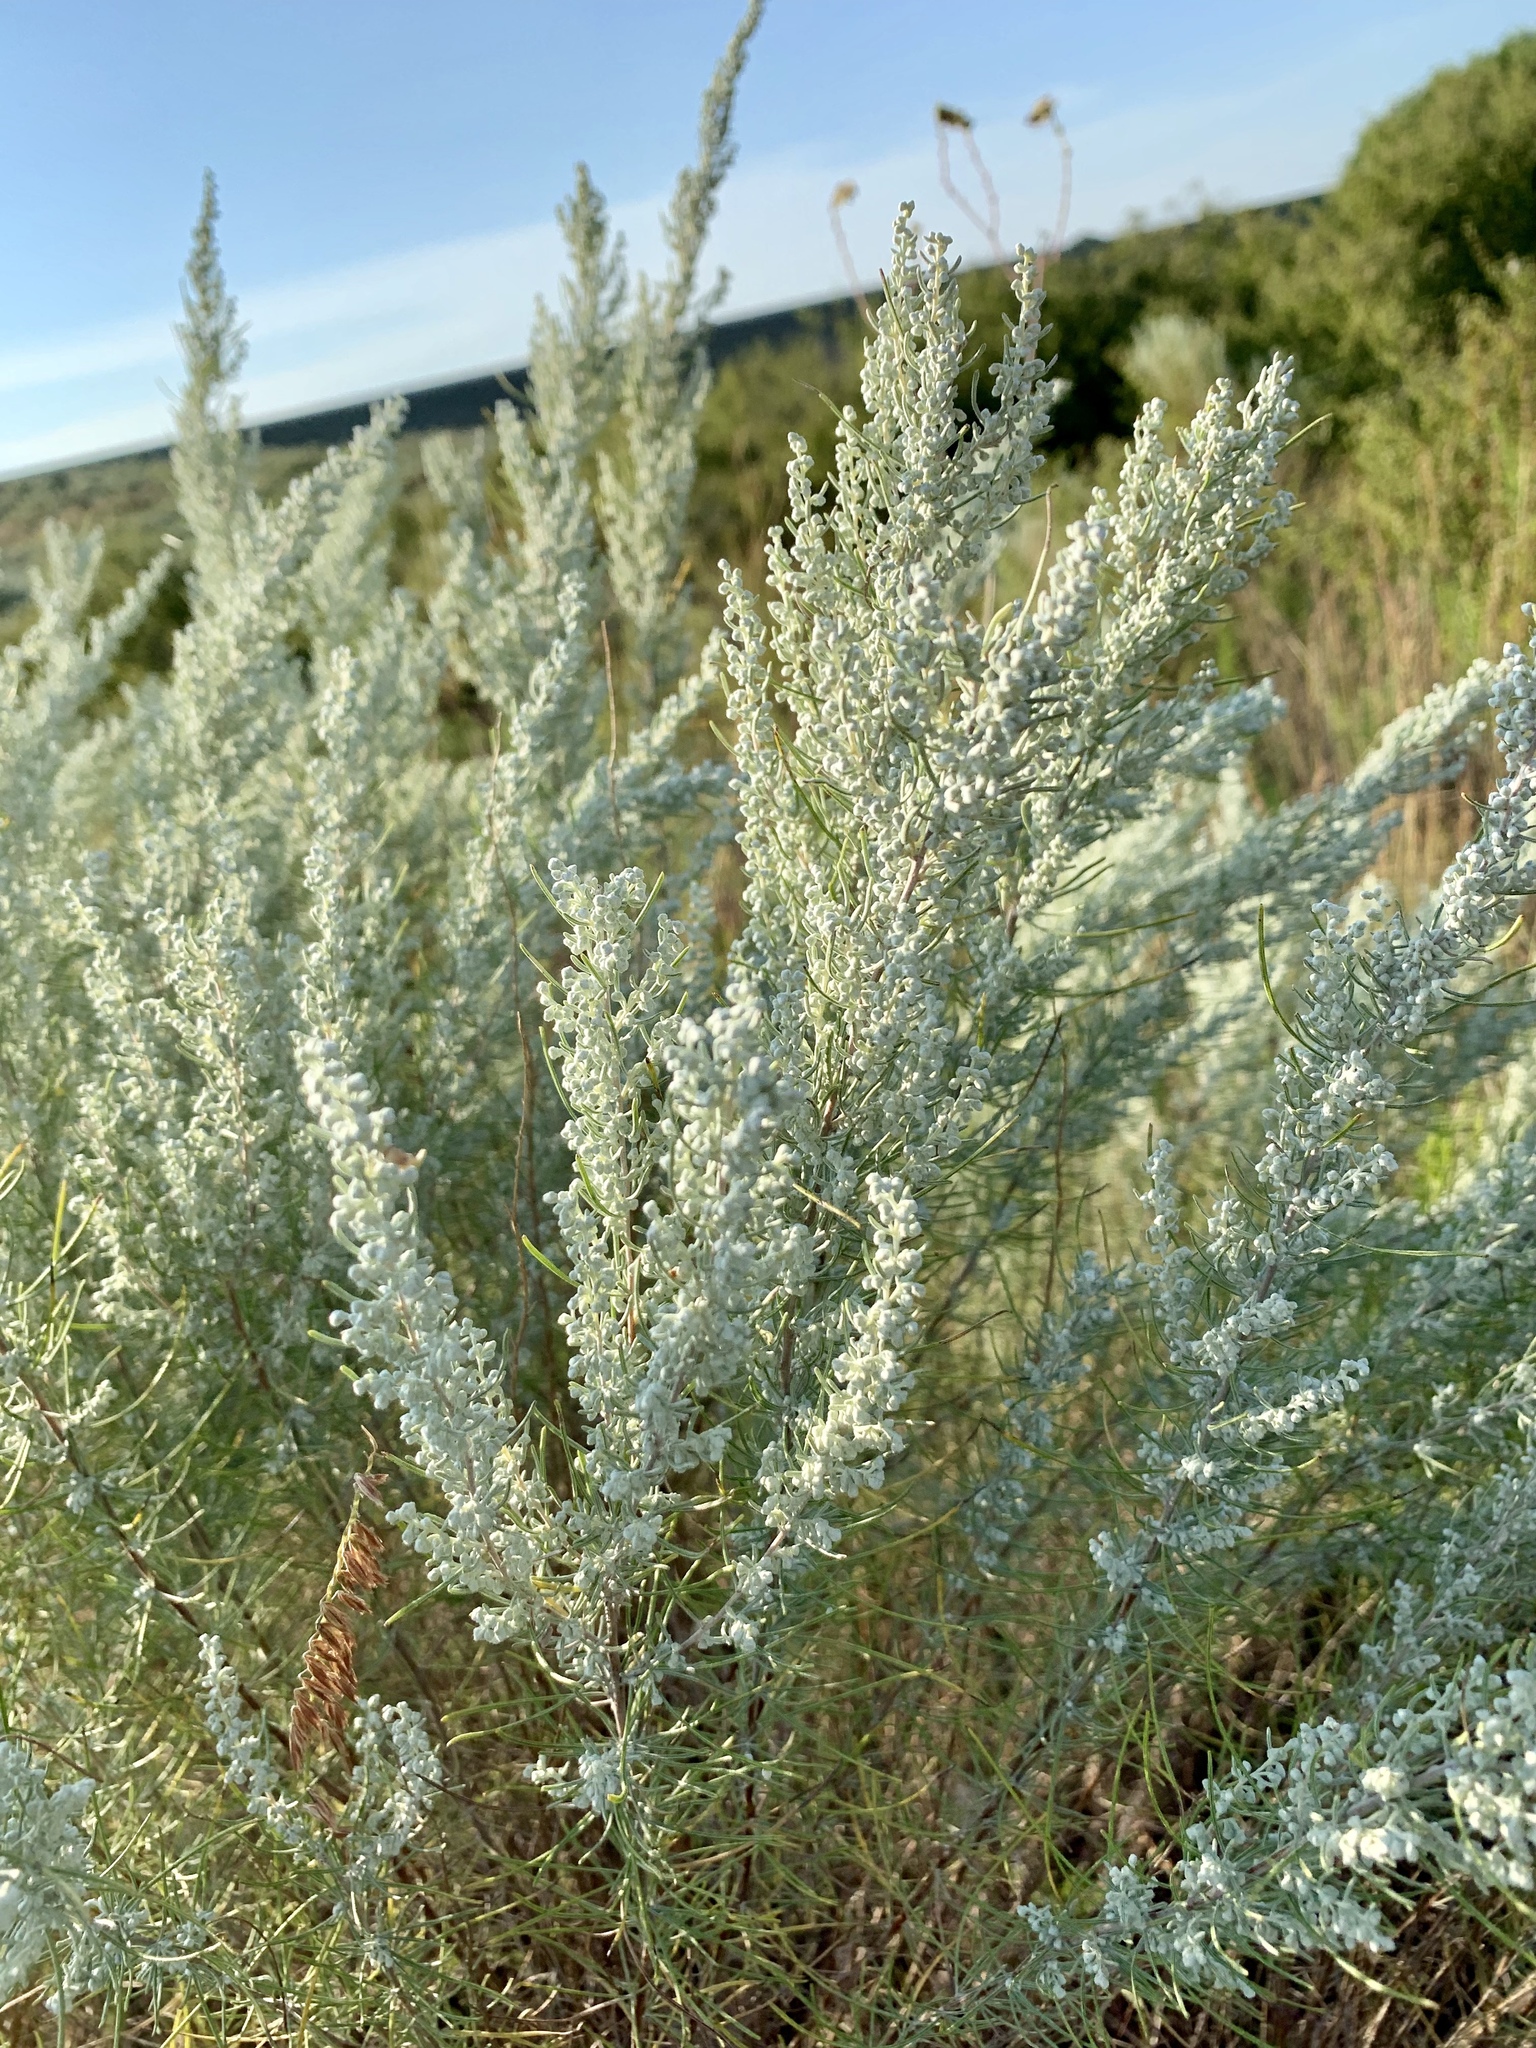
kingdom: Plantae
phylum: Tracheophyta
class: Magnoliopsida
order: Asterales
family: Asteraceae
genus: Artemisia
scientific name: Artemisia filifolia
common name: Sand-sage
